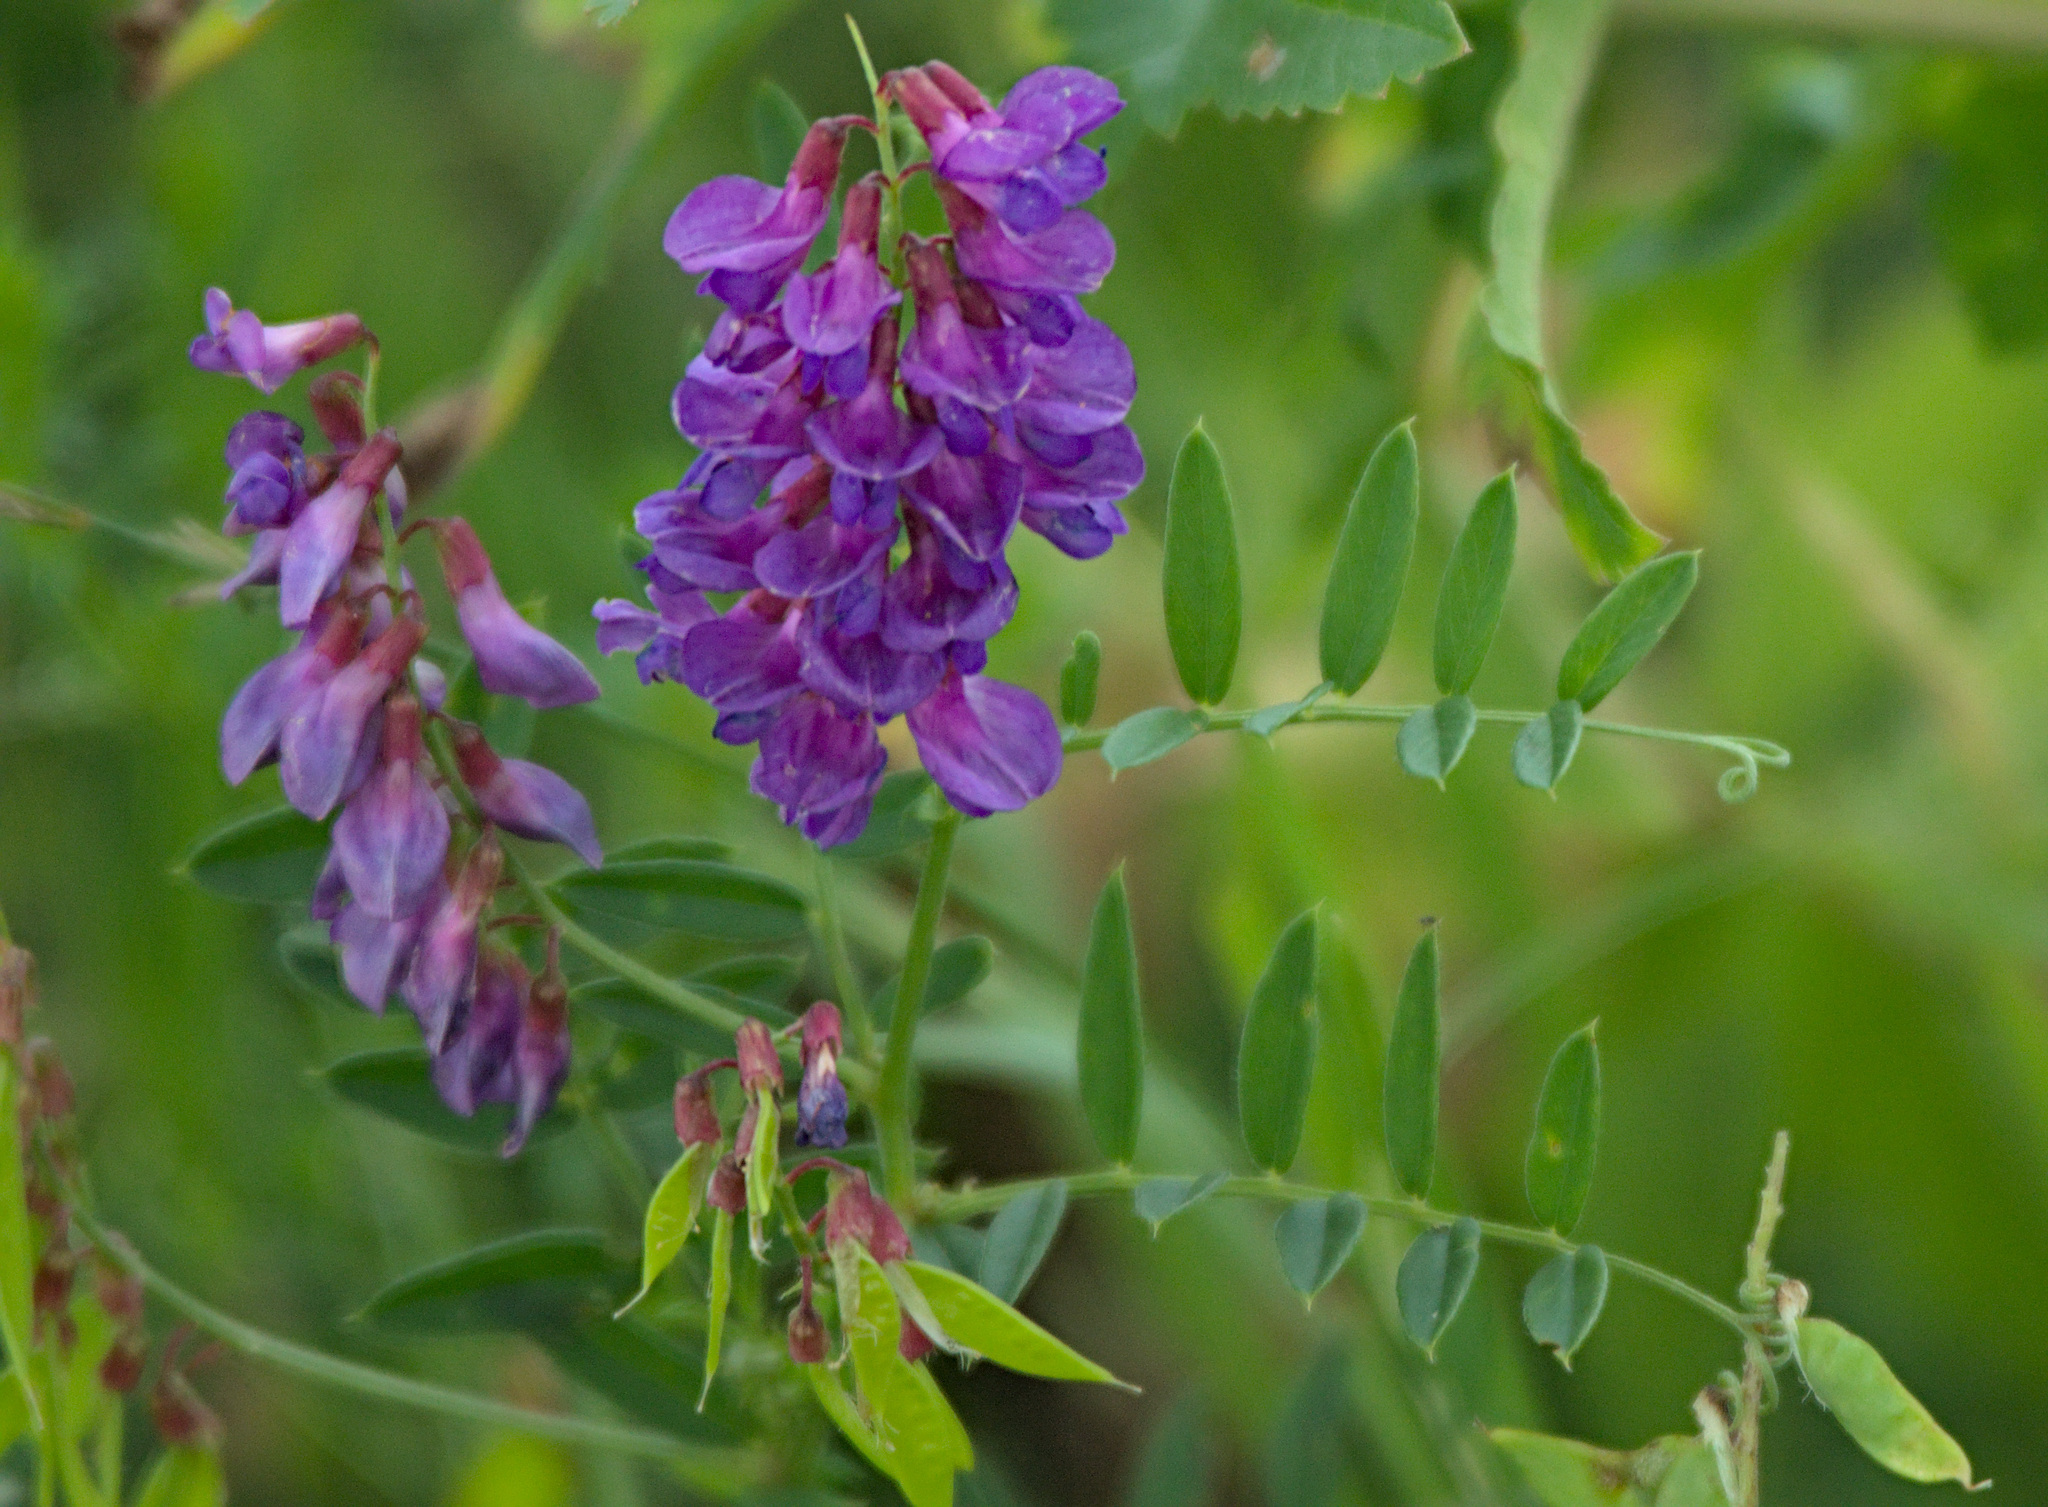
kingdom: Plantae
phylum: Tracheophyta
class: Magnoliopsida
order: Fabales
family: Fabaceae
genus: Vicia
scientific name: Vicia amoena
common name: Cheder ebs
